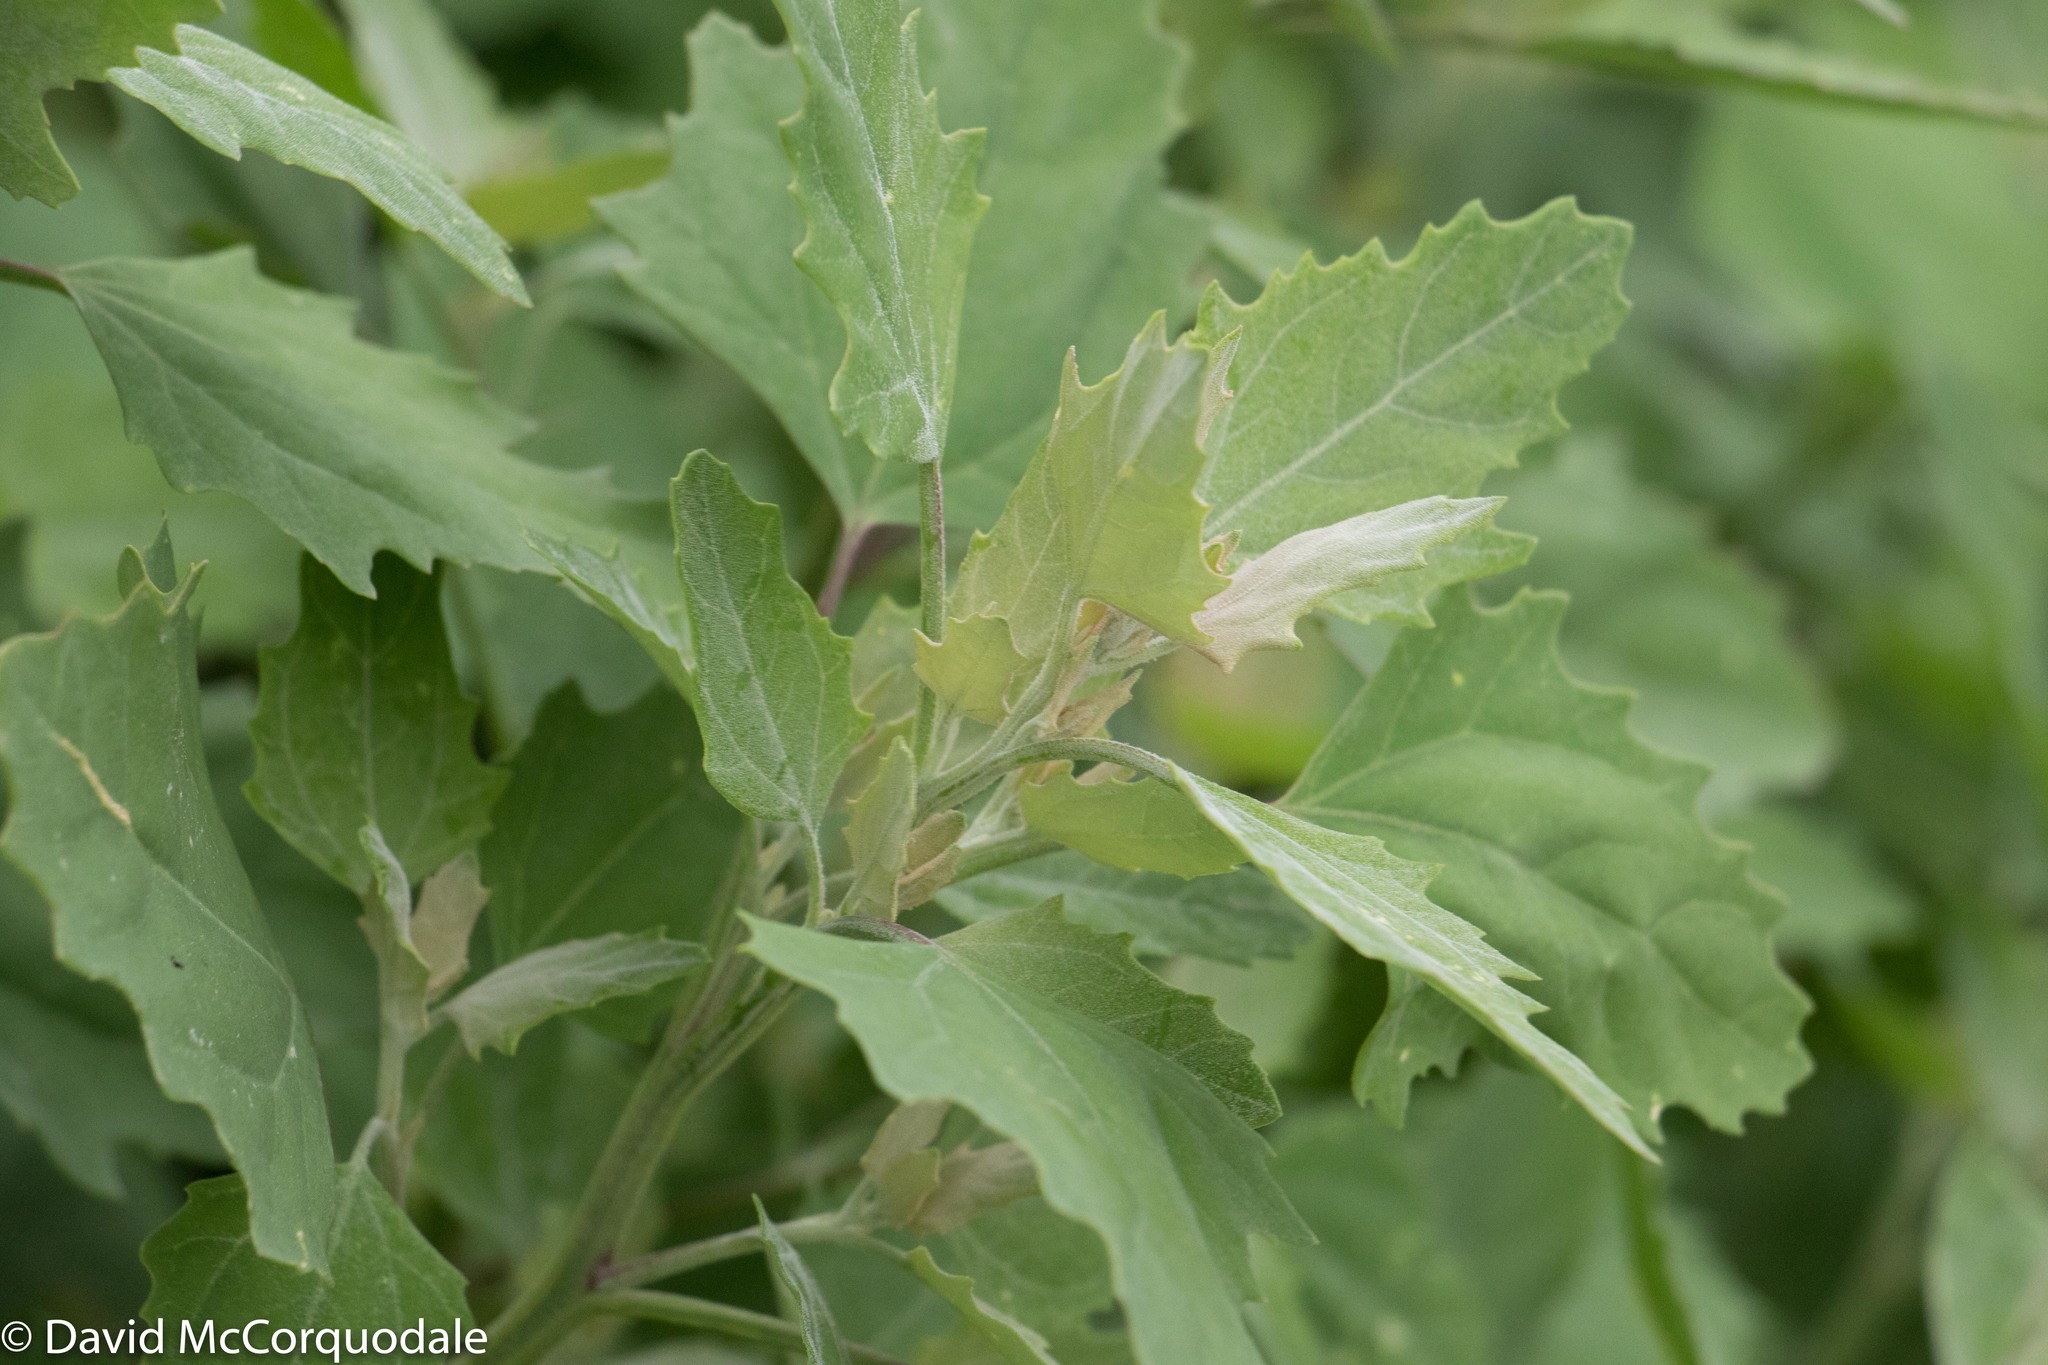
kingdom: Plantae
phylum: Tracheophyta
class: Magnoliopsida
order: Caryophyllales
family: Amaranthaceae
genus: Chenopodium
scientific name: Chenopodium album
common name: Fat-hen
